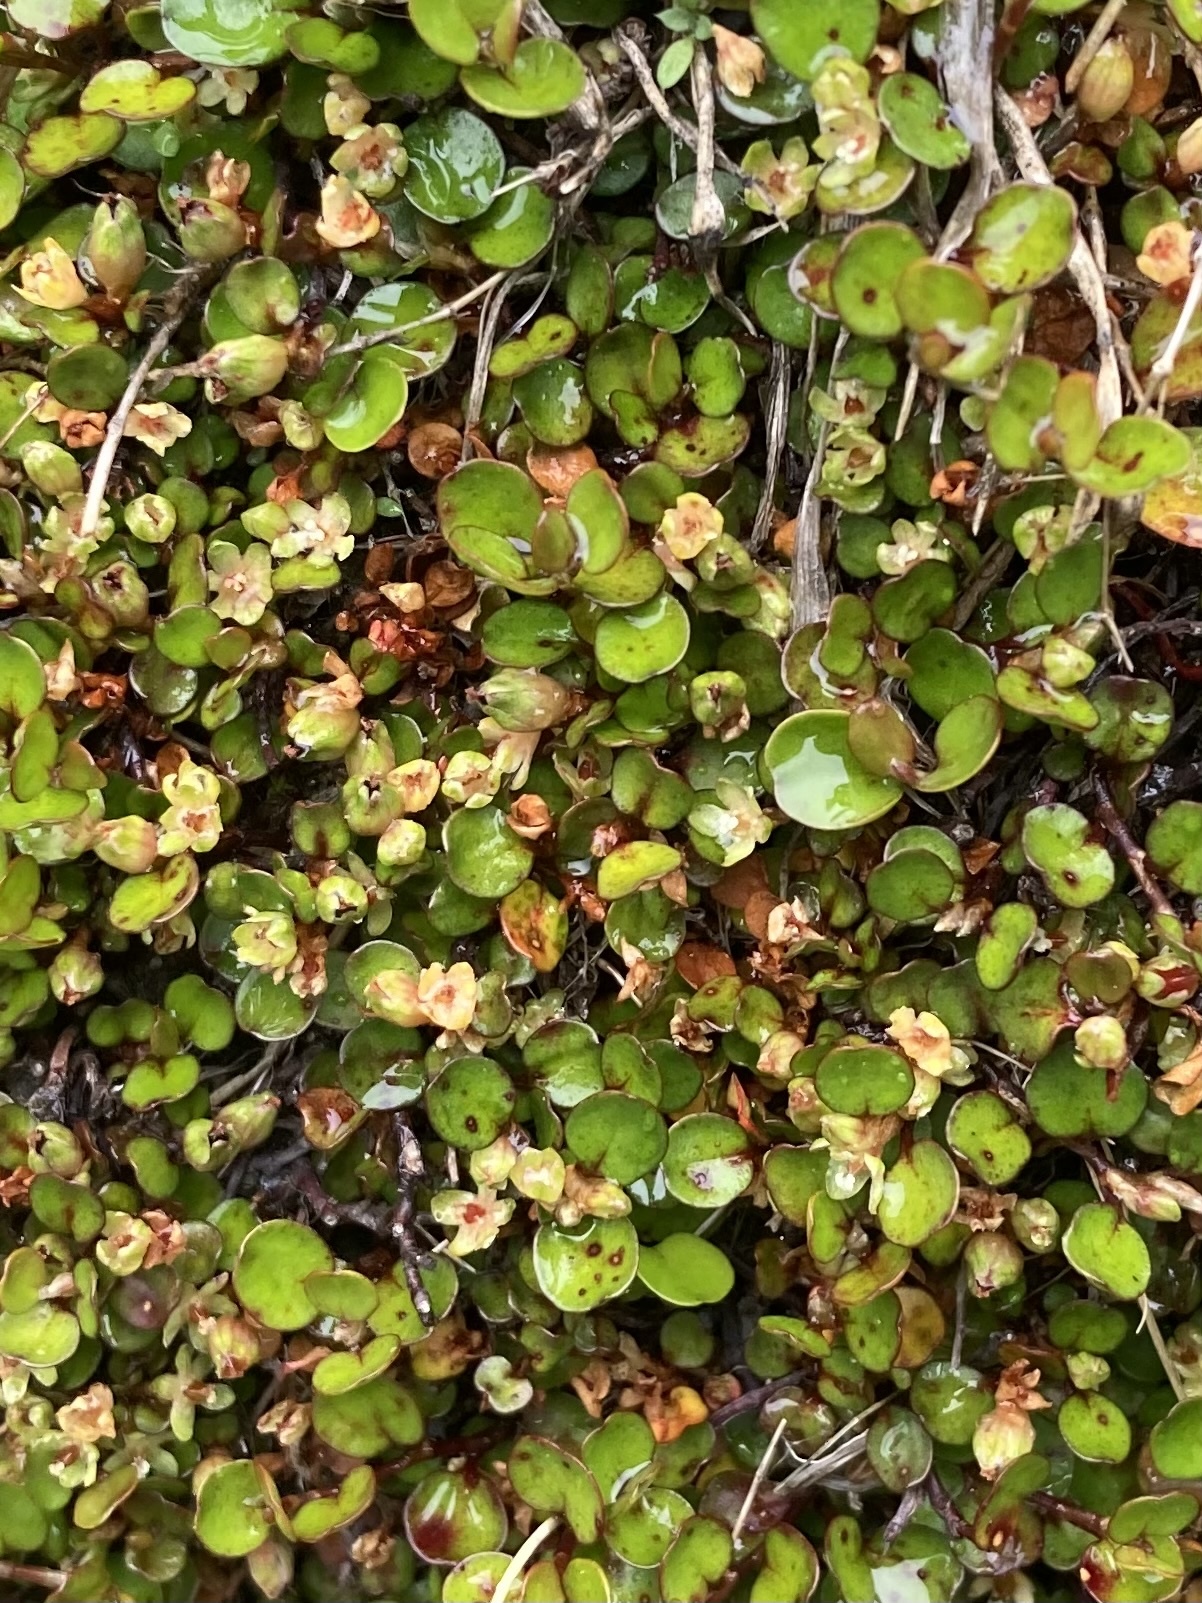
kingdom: Plantae
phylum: Tracheophyta
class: Magnoliopsida
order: Caryophyllales
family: Polygonaceae
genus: Muehlenbeckia
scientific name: Muehlenbeckia axillaris
